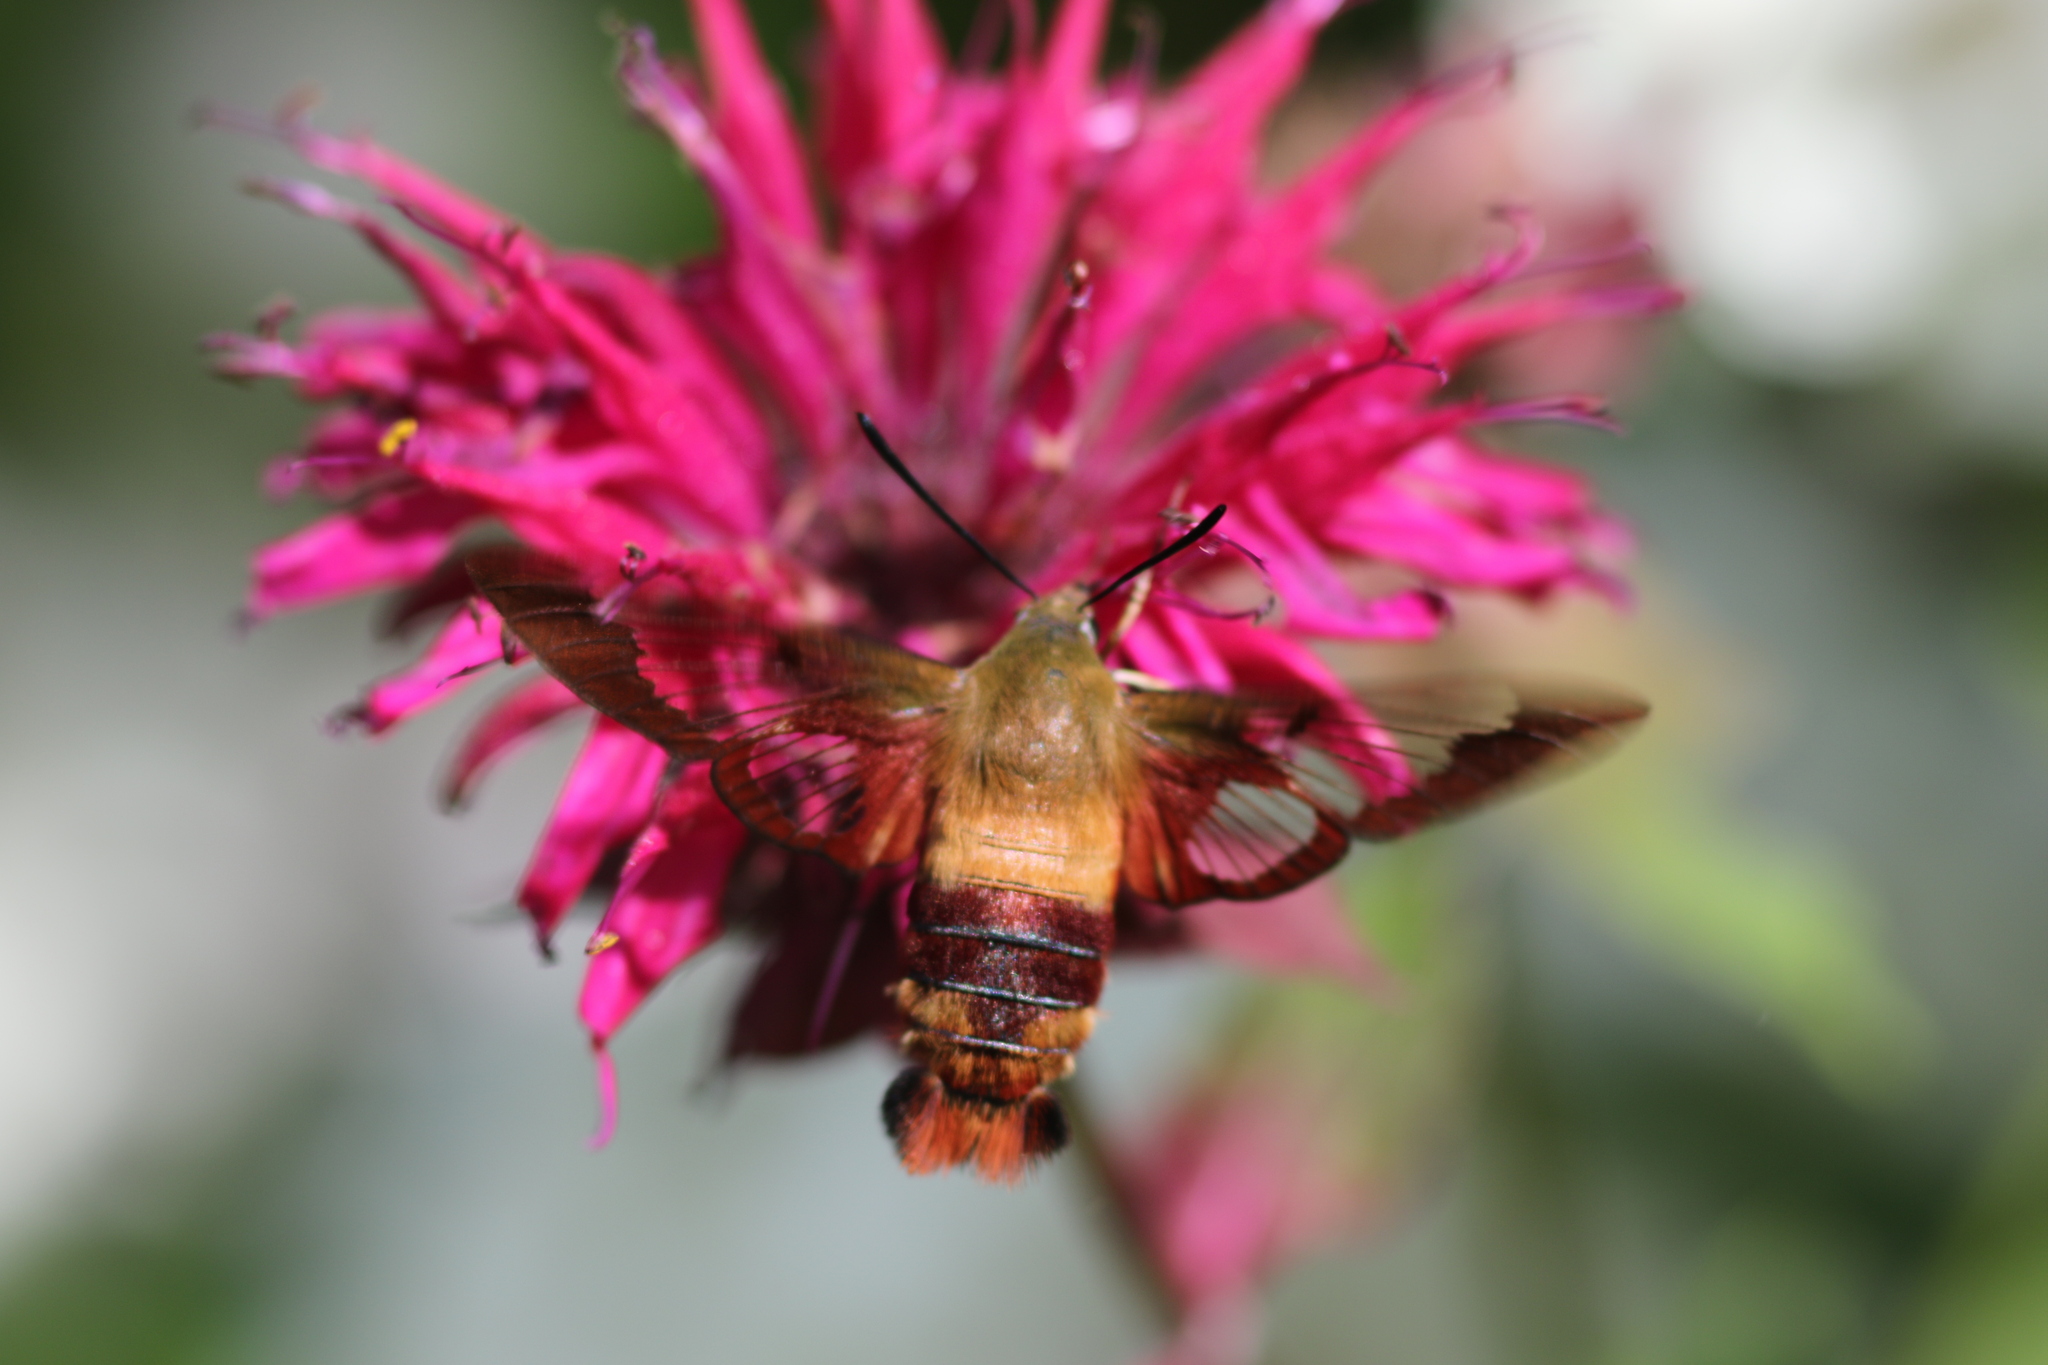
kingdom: Animalia
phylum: Arthropoda
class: Insecta
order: Lepidoptera
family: Sphingidae
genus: Hemaris
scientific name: Hemaris thysbe
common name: Common clear-wing
